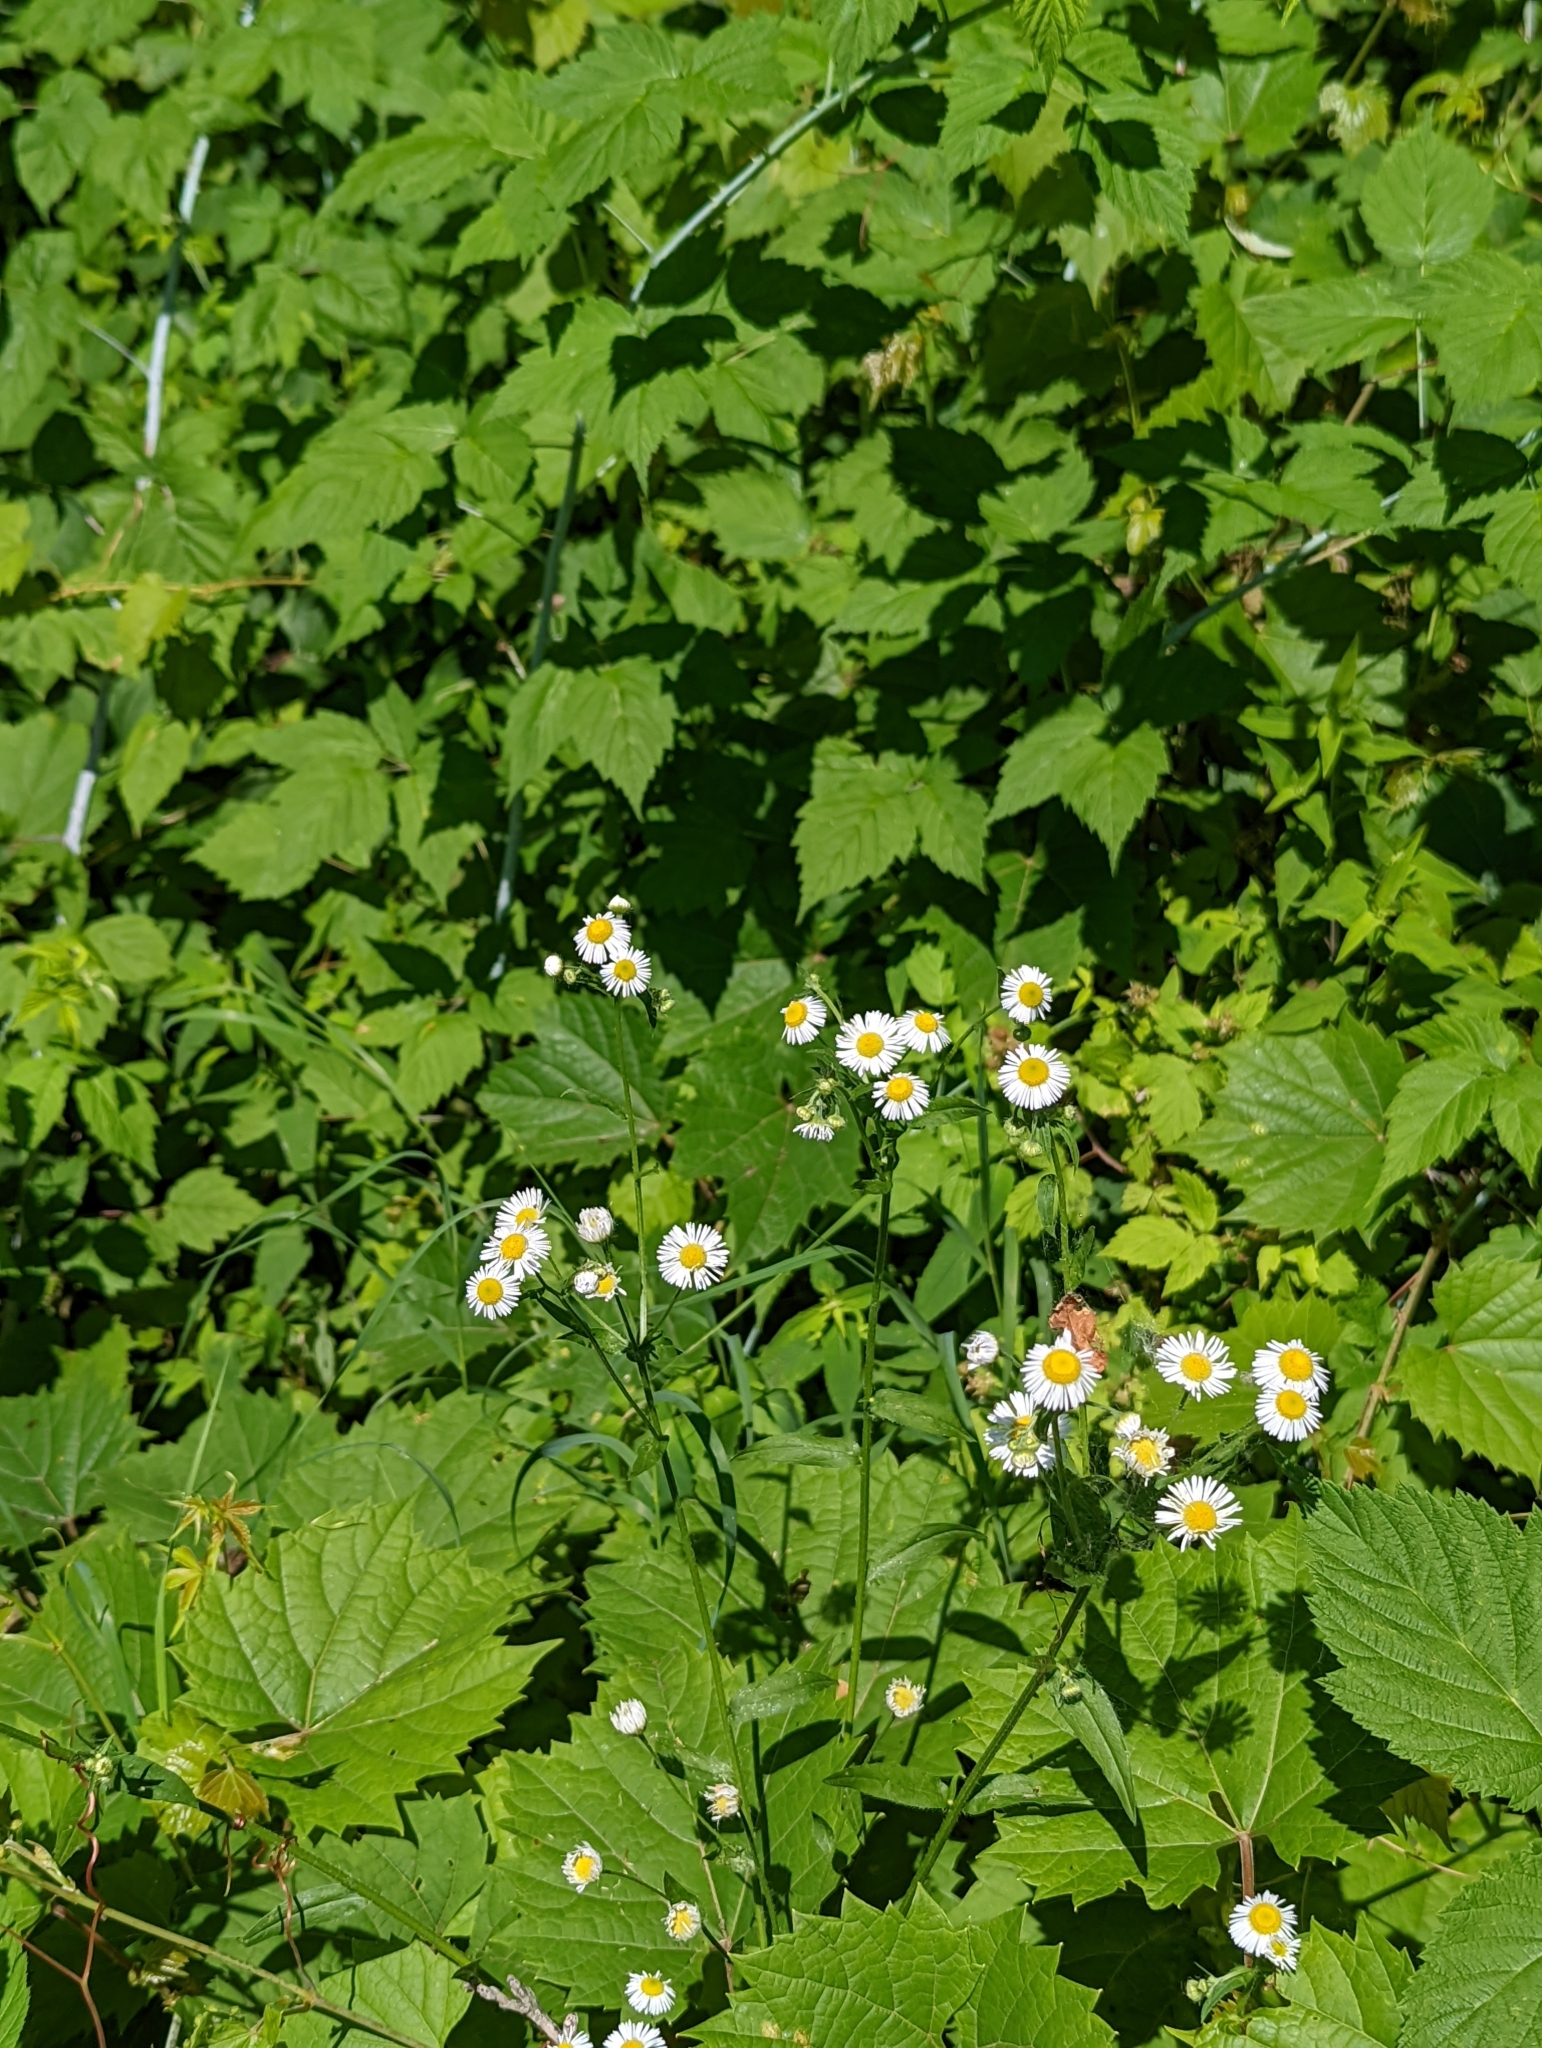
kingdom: Plantae
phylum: Tracheophyta
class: Magnoliopsida
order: Asterales
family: Asteraceae
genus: Erigeron
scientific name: Erigeron strigosus
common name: Common eastern fleabane
